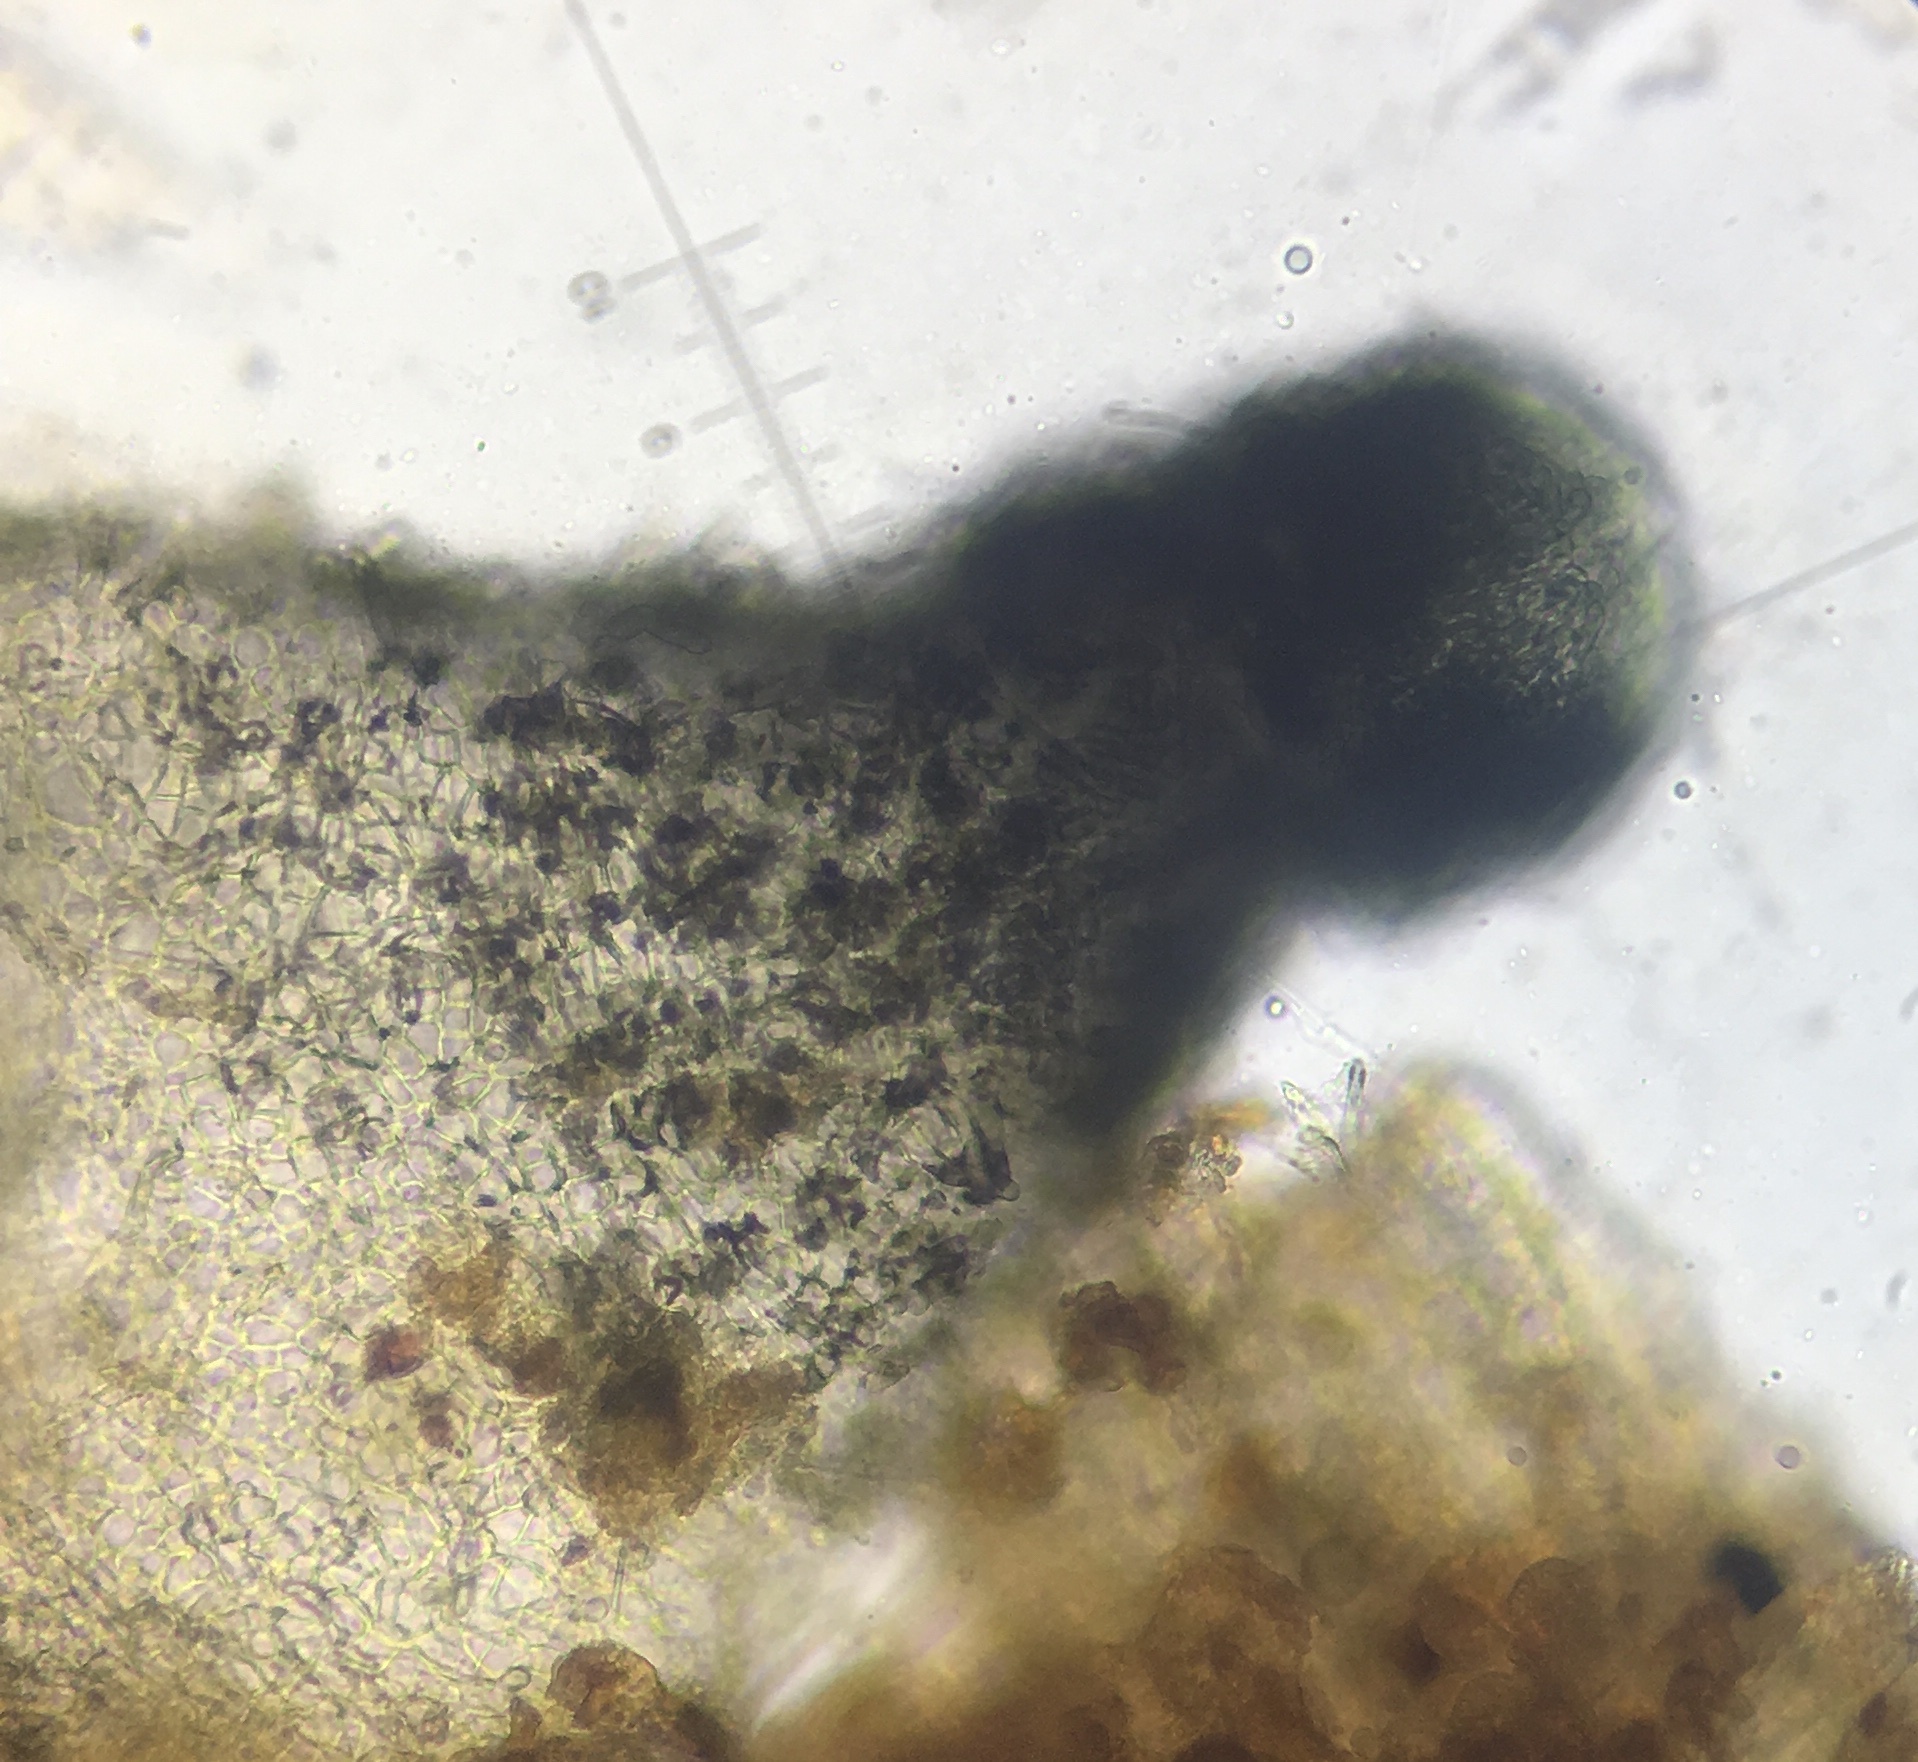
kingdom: Fungi
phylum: Ascomycota
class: Sordariomycetes
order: Sordariales
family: Podosporaceae
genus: Podospora
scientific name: Podospora collapsa
